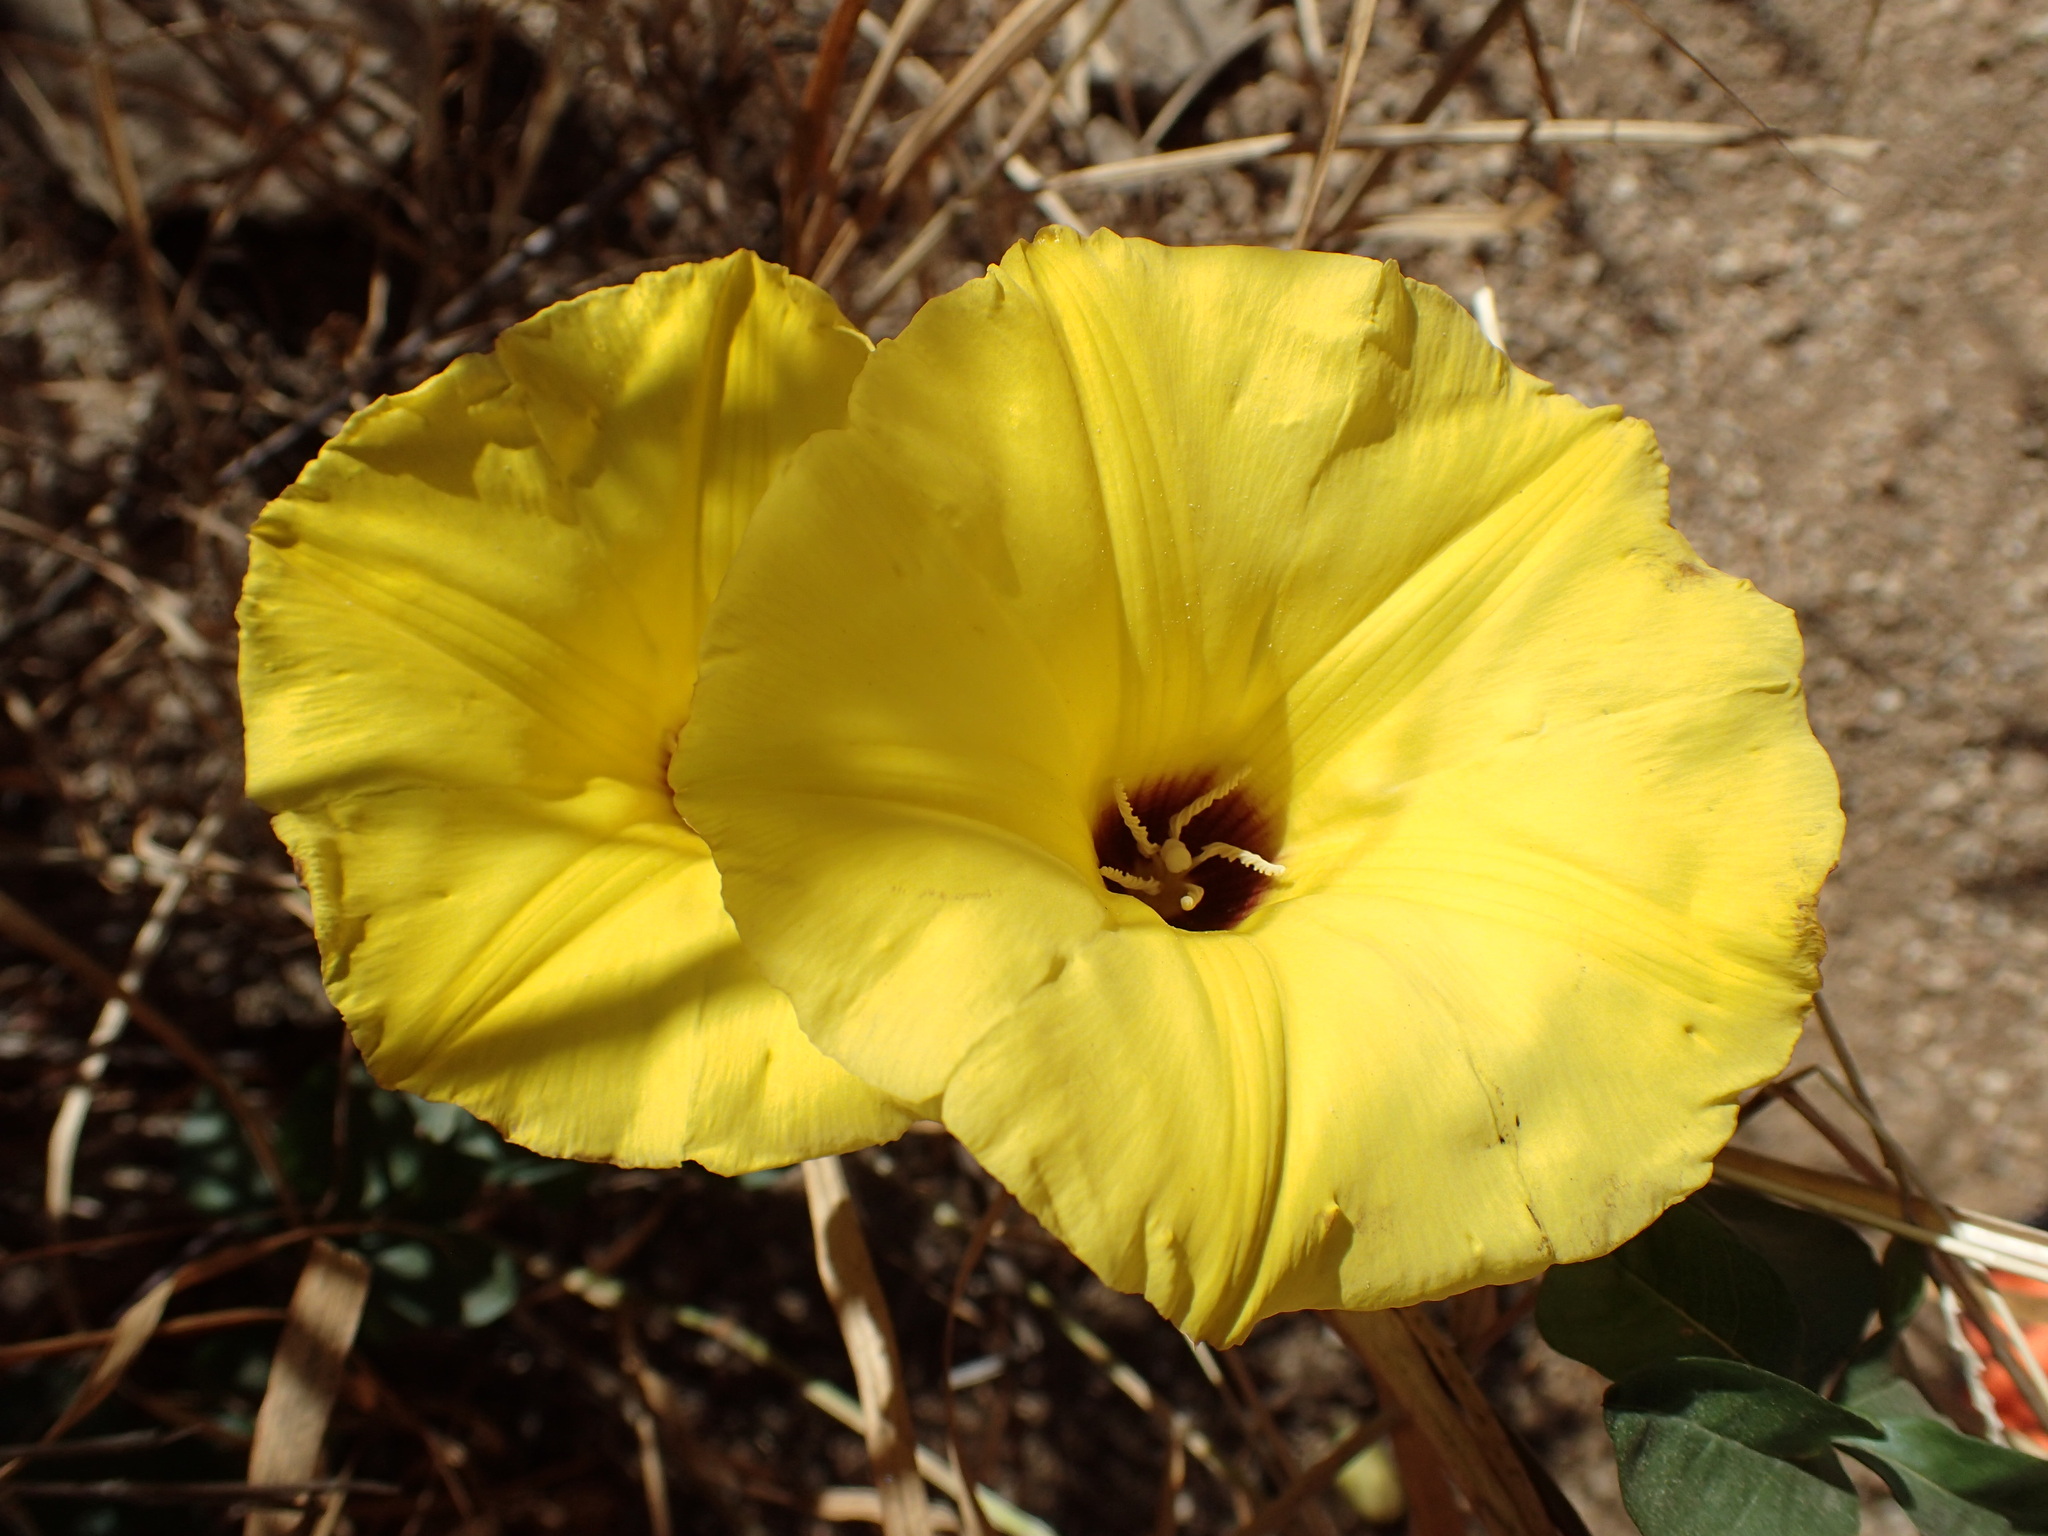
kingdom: Plantae
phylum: Tracheophyta
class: Magnoliopsida
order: Solanales
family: Convolvulaceae
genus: Distimake
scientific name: Distimake aureus
